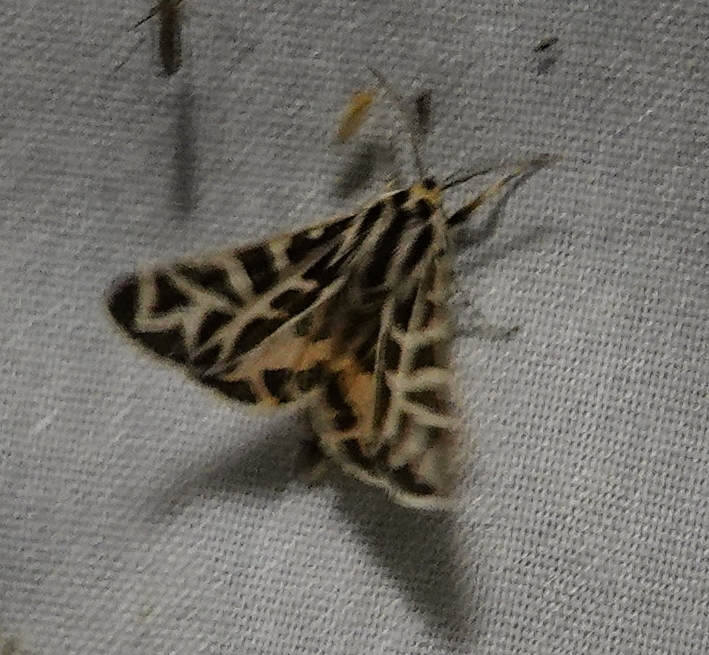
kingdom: Animalia
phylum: Arthropoda
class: Insecta
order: Lepidoptera
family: Erebidae
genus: Apantesis
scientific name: Apantesis
